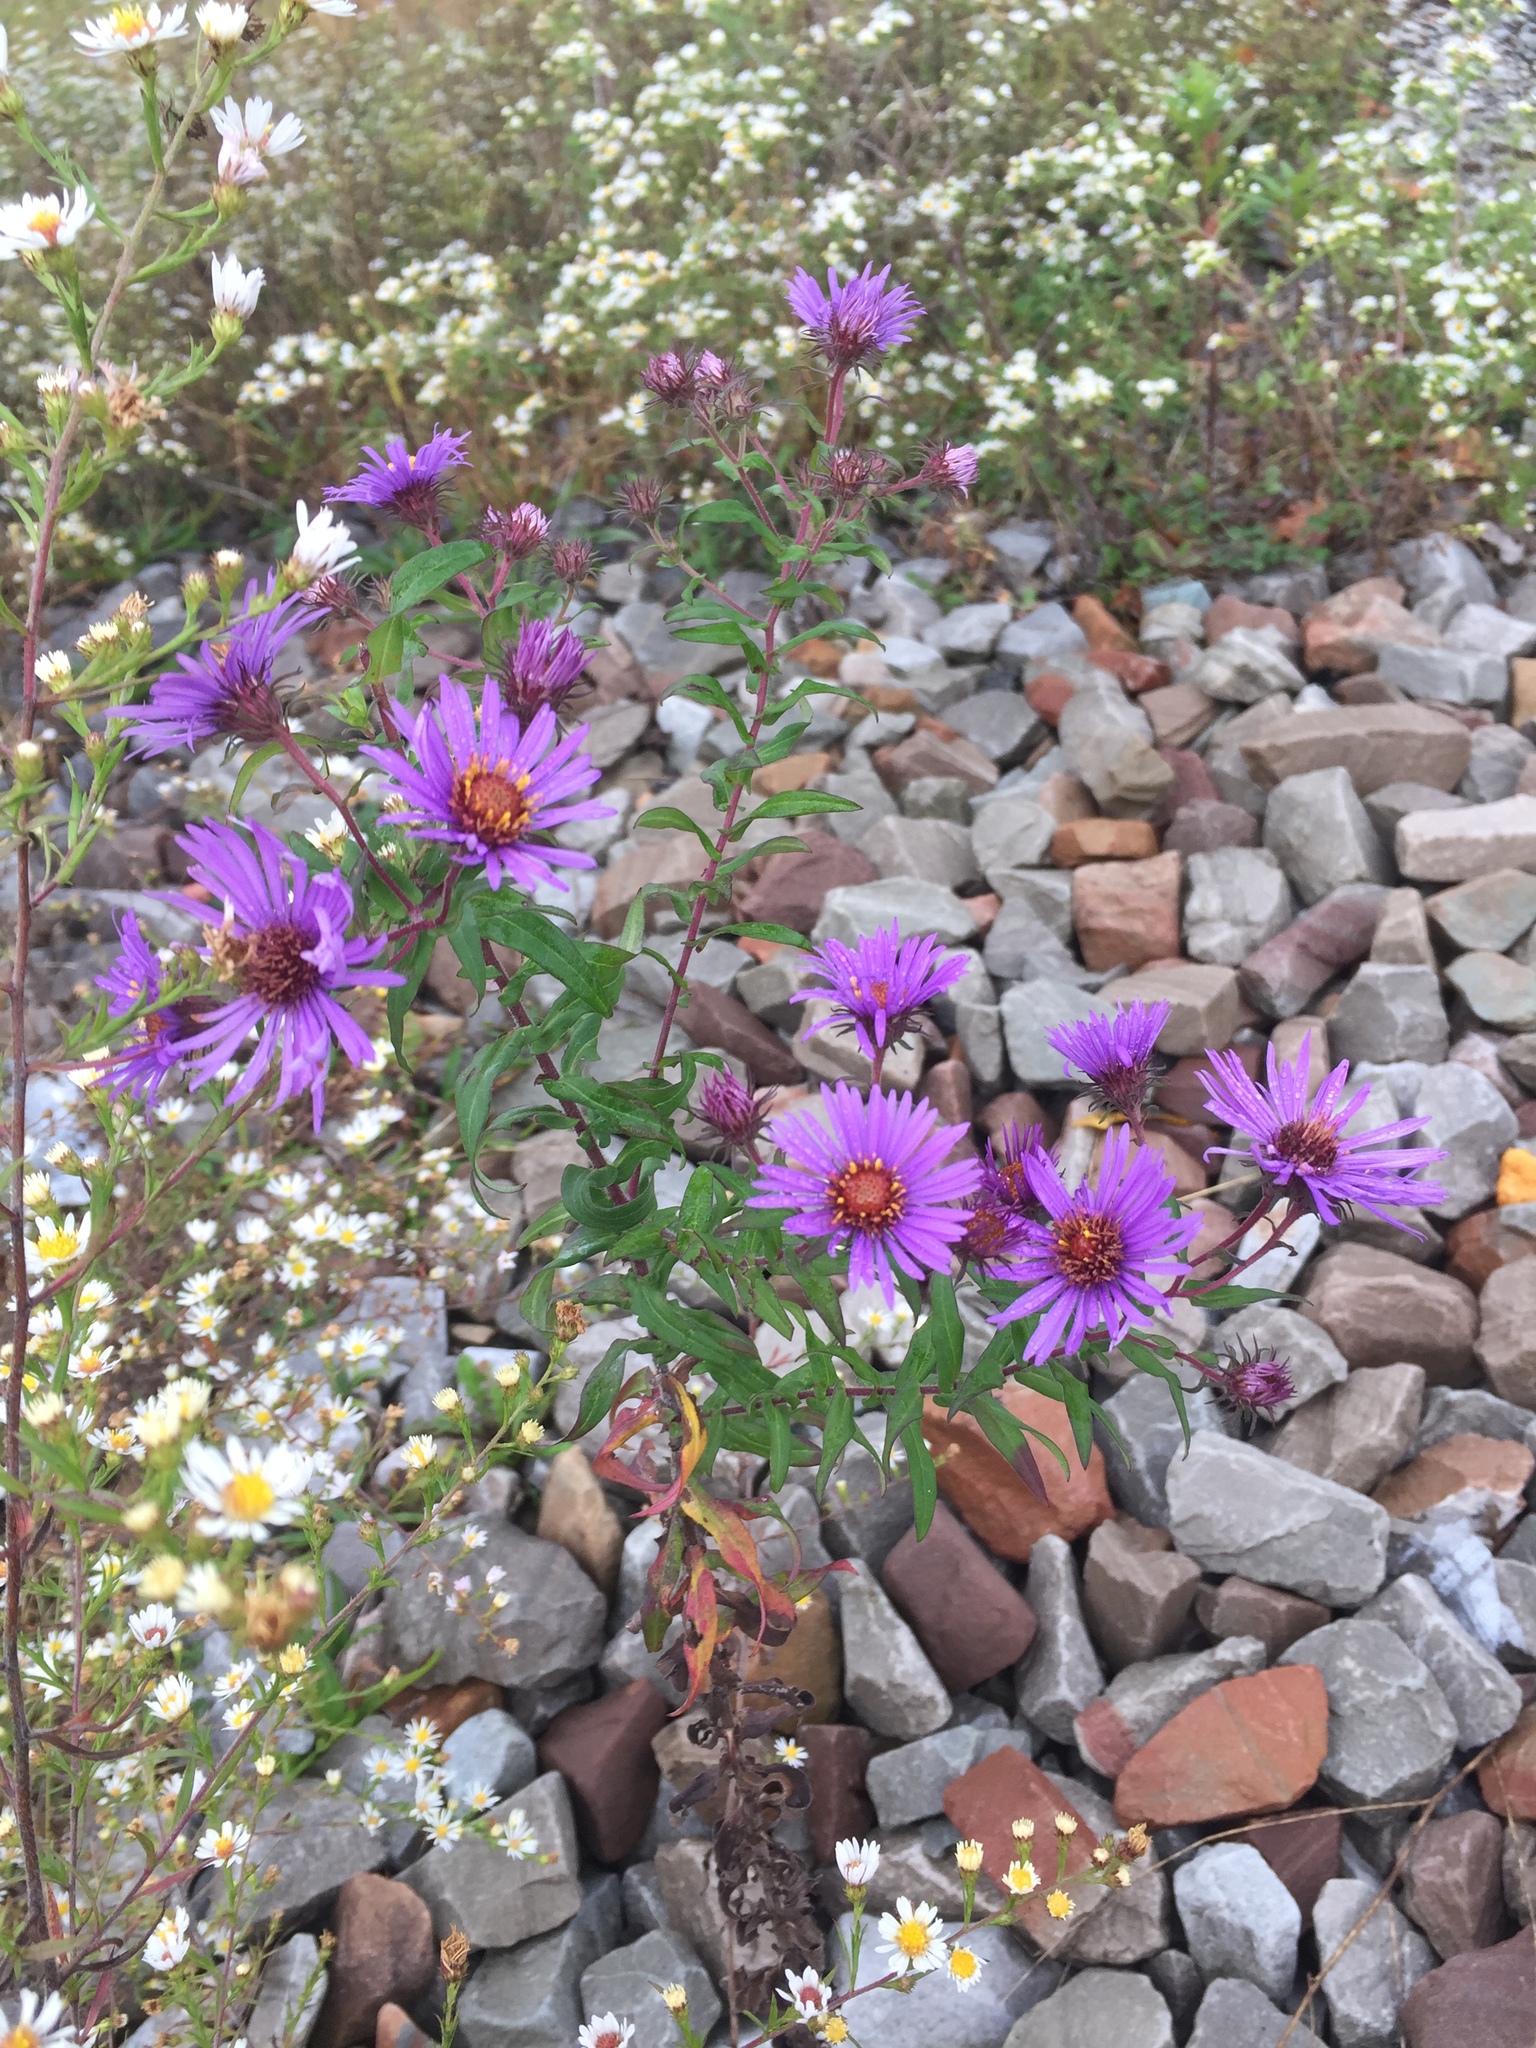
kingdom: Plantae
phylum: Tracheophyta
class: Magnoliopsida
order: Asterales
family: Asteraceae
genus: Symphyotrichum
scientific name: Symphyotrichum novae-angliae
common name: Michaelmas daisy
